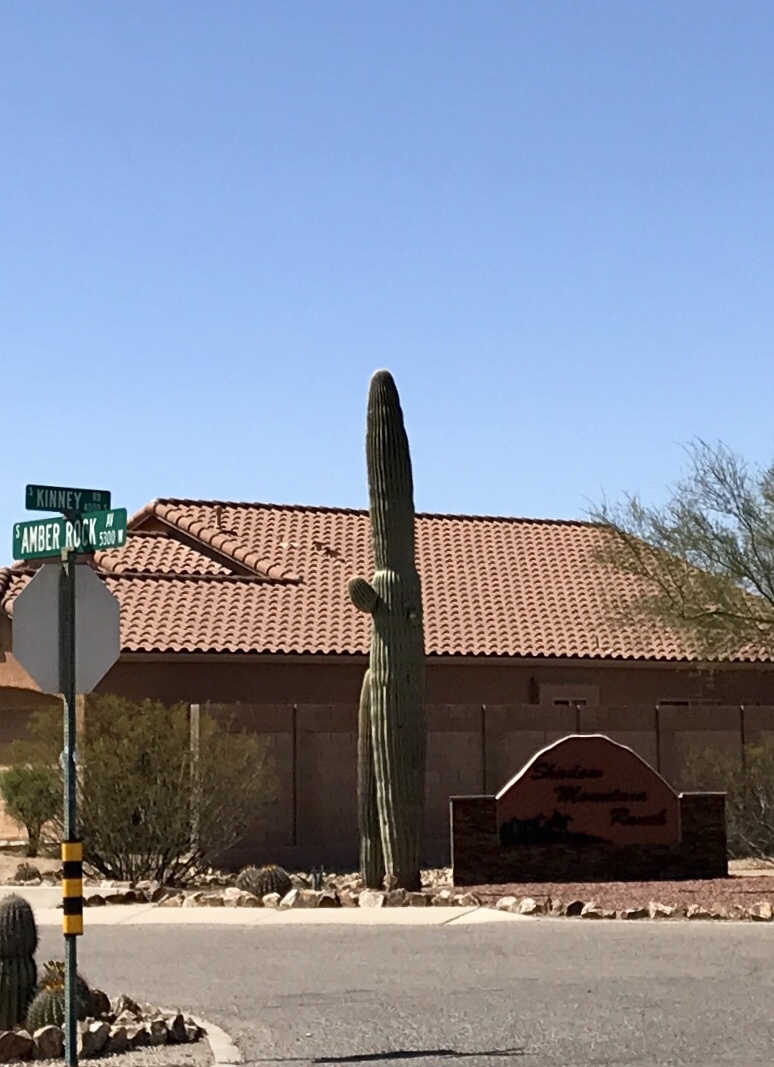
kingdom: Plantae
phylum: Tracheophyta
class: Magnoliopsida
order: Caryophyllales
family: Cactaceae
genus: Carnegiea
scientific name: Carnegiea gigantea
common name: Saguaro
